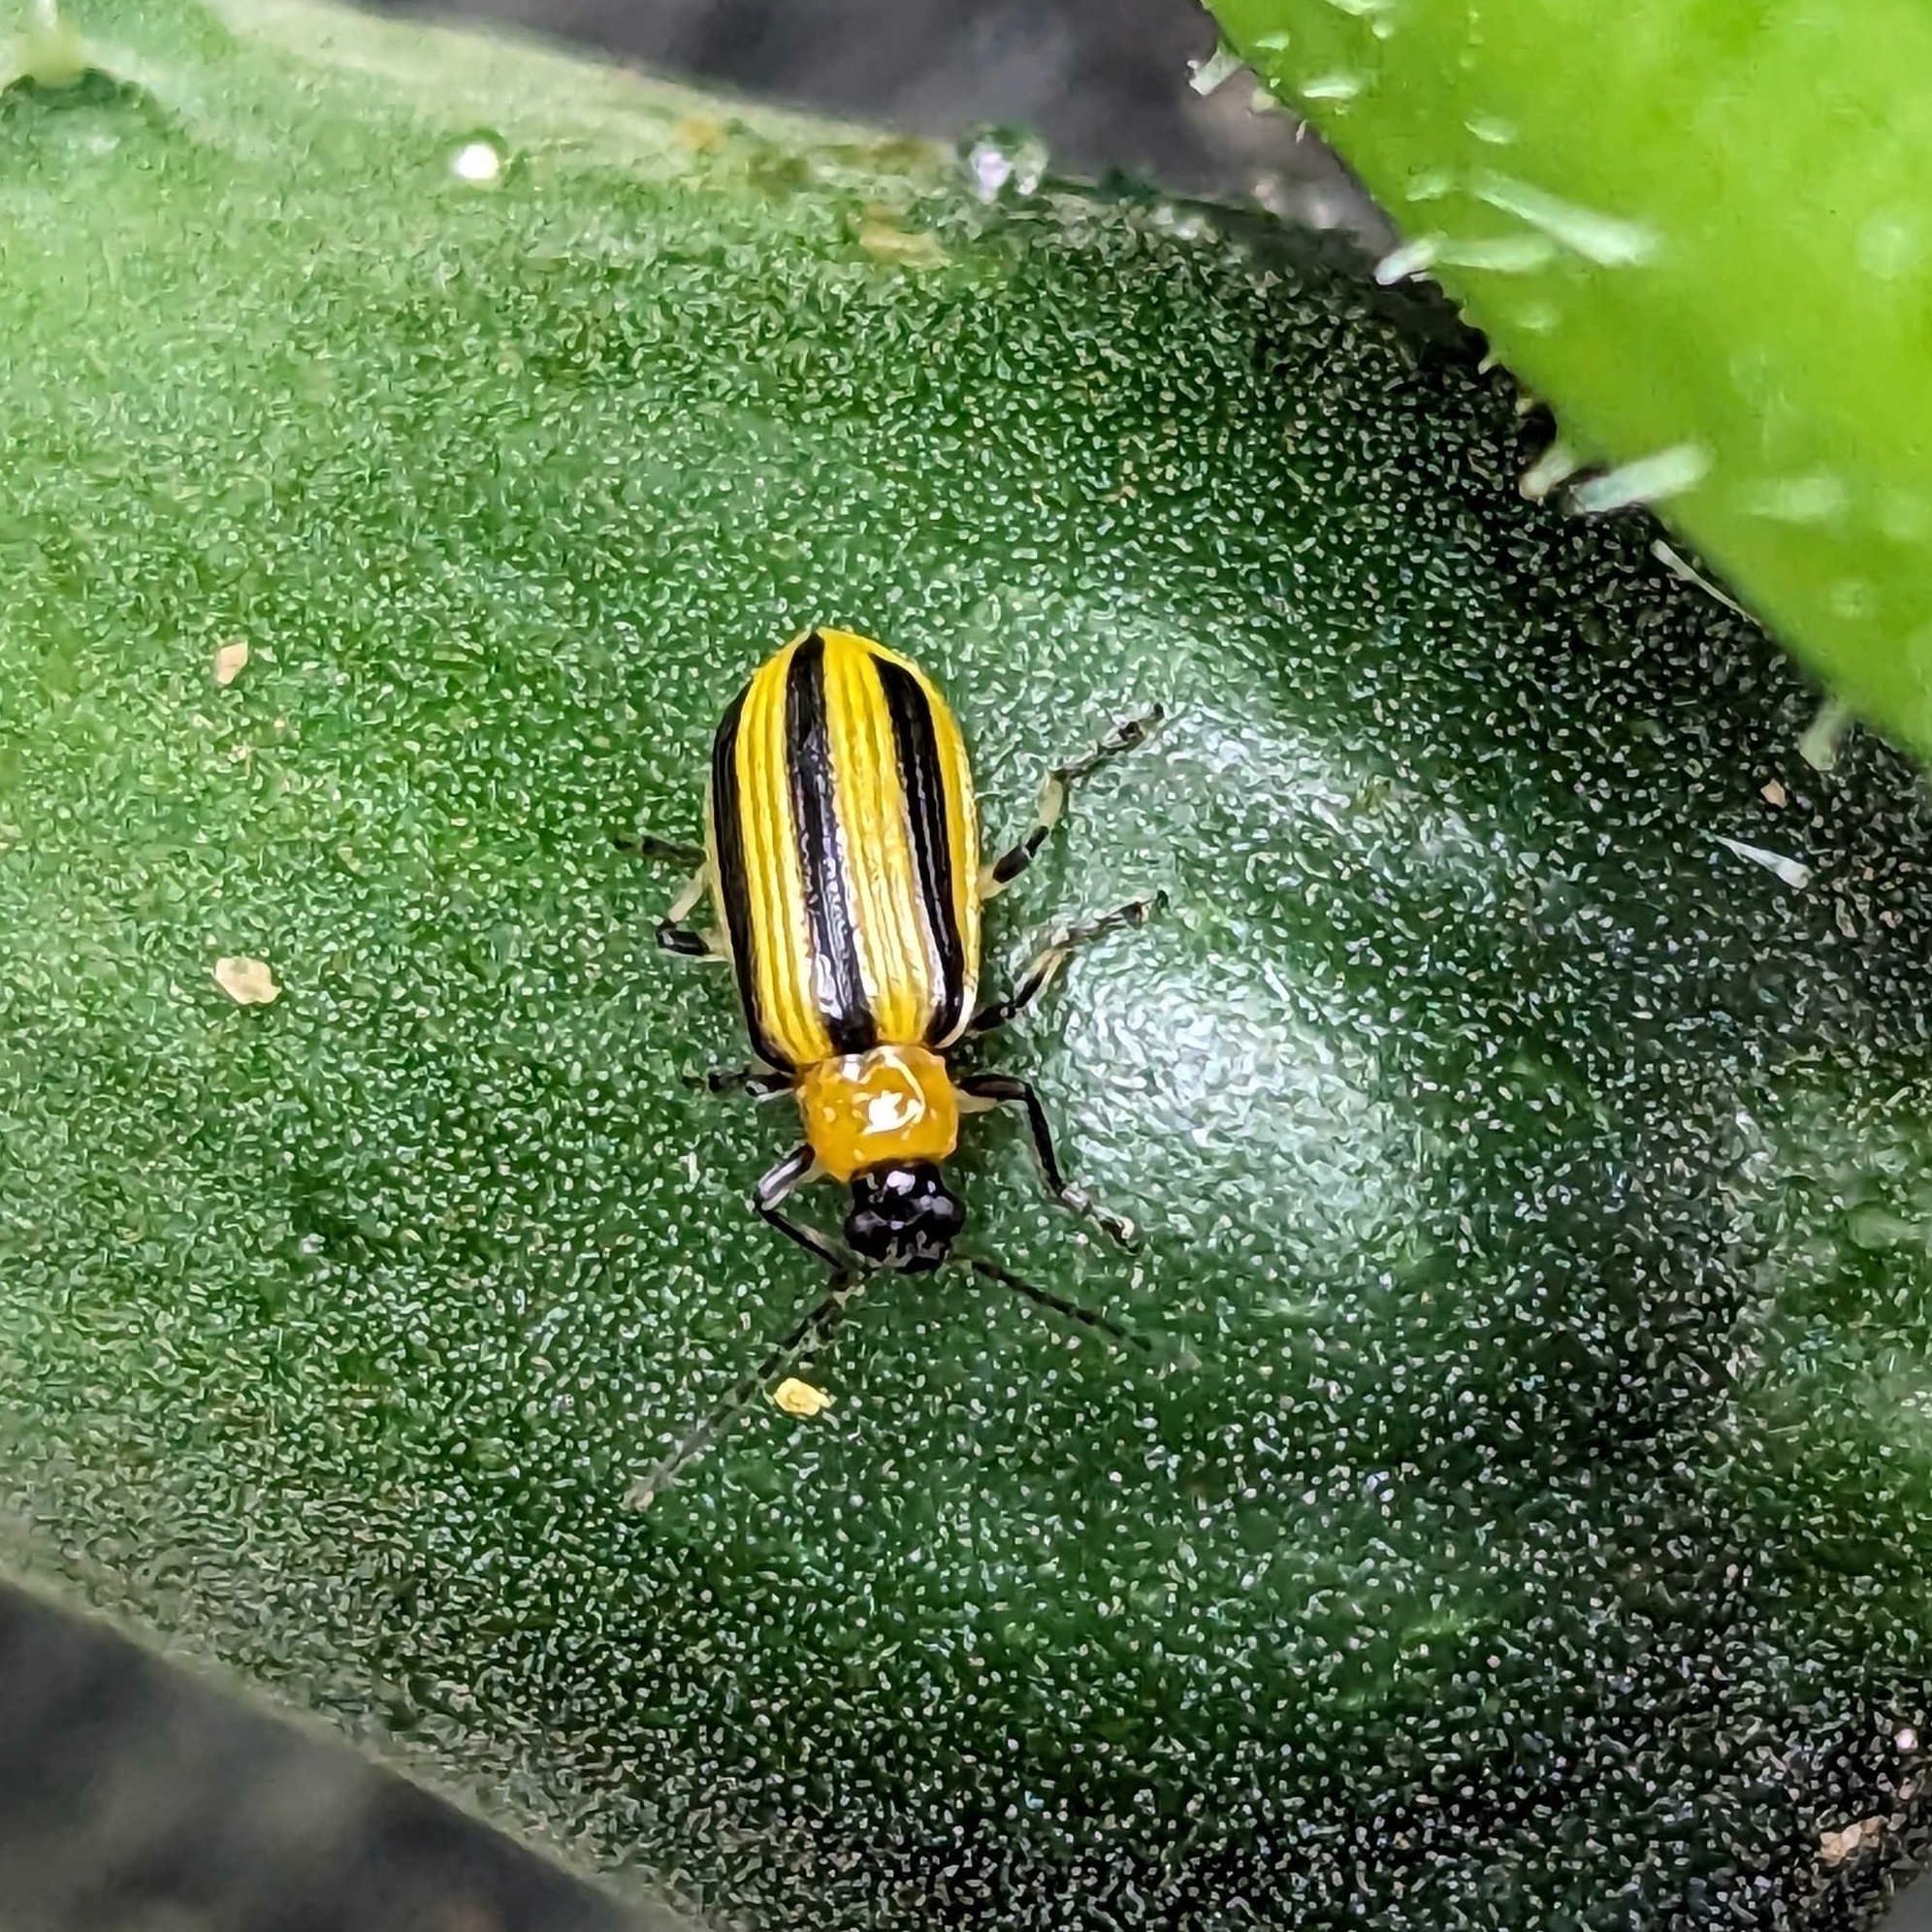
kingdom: Animalia
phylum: Arthropoda
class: Insecta
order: Coleoptera
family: Chrysomelidae
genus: Acalymma
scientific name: Acalymma vittatum
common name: Striped cucumber beetle
